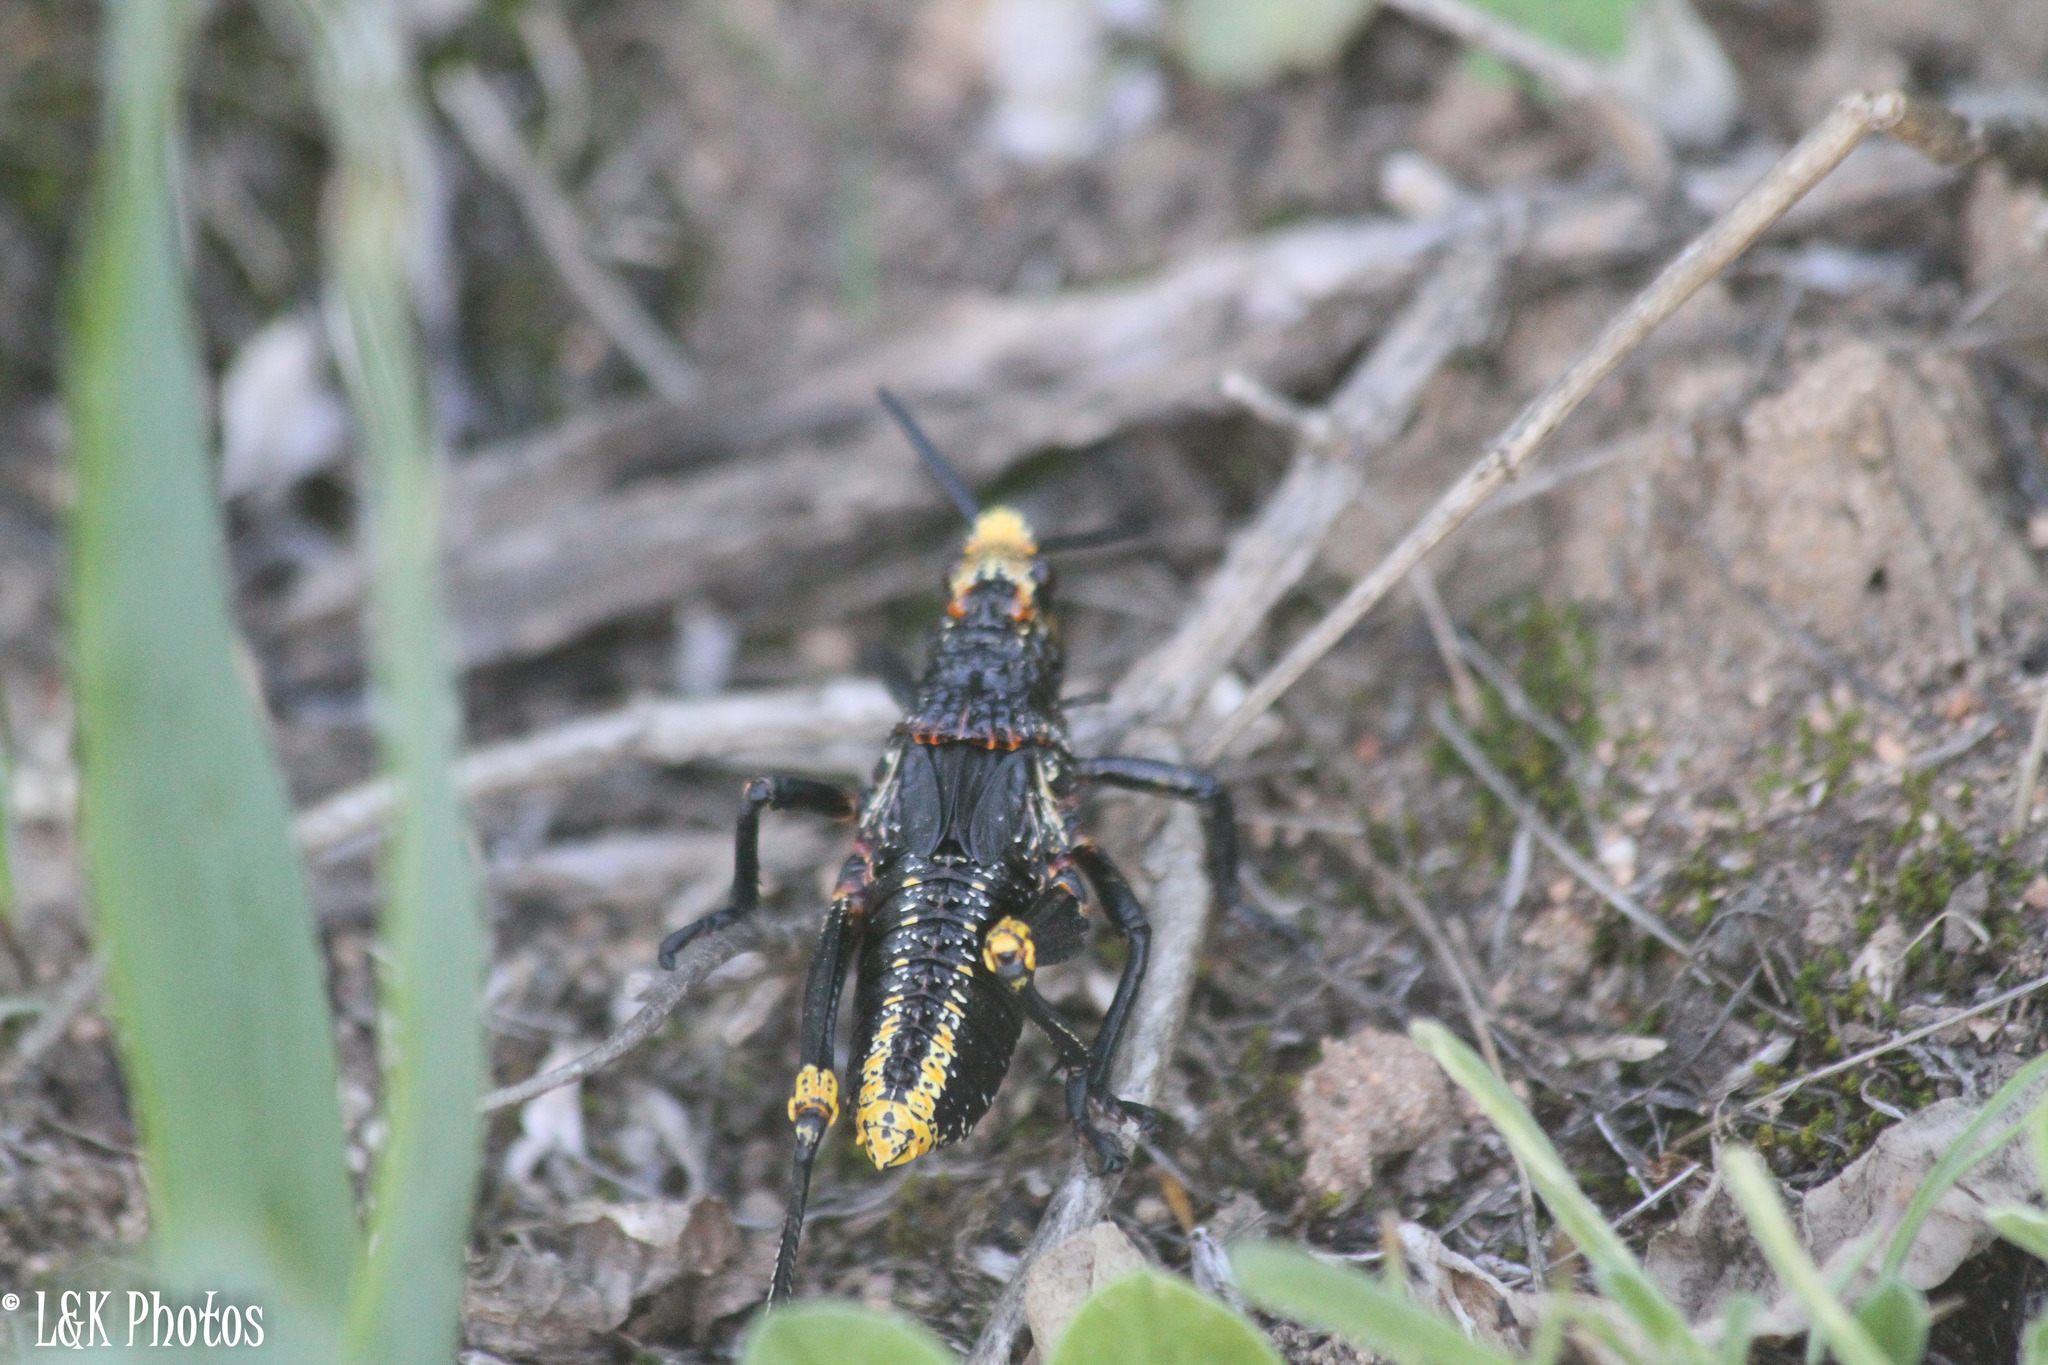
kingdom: Animalia
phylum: Arthropoda
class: Insecta
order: Orthoptera
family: Pyrgomorphidae
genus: Dictyophorus
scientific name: Dictyophorus spumans
